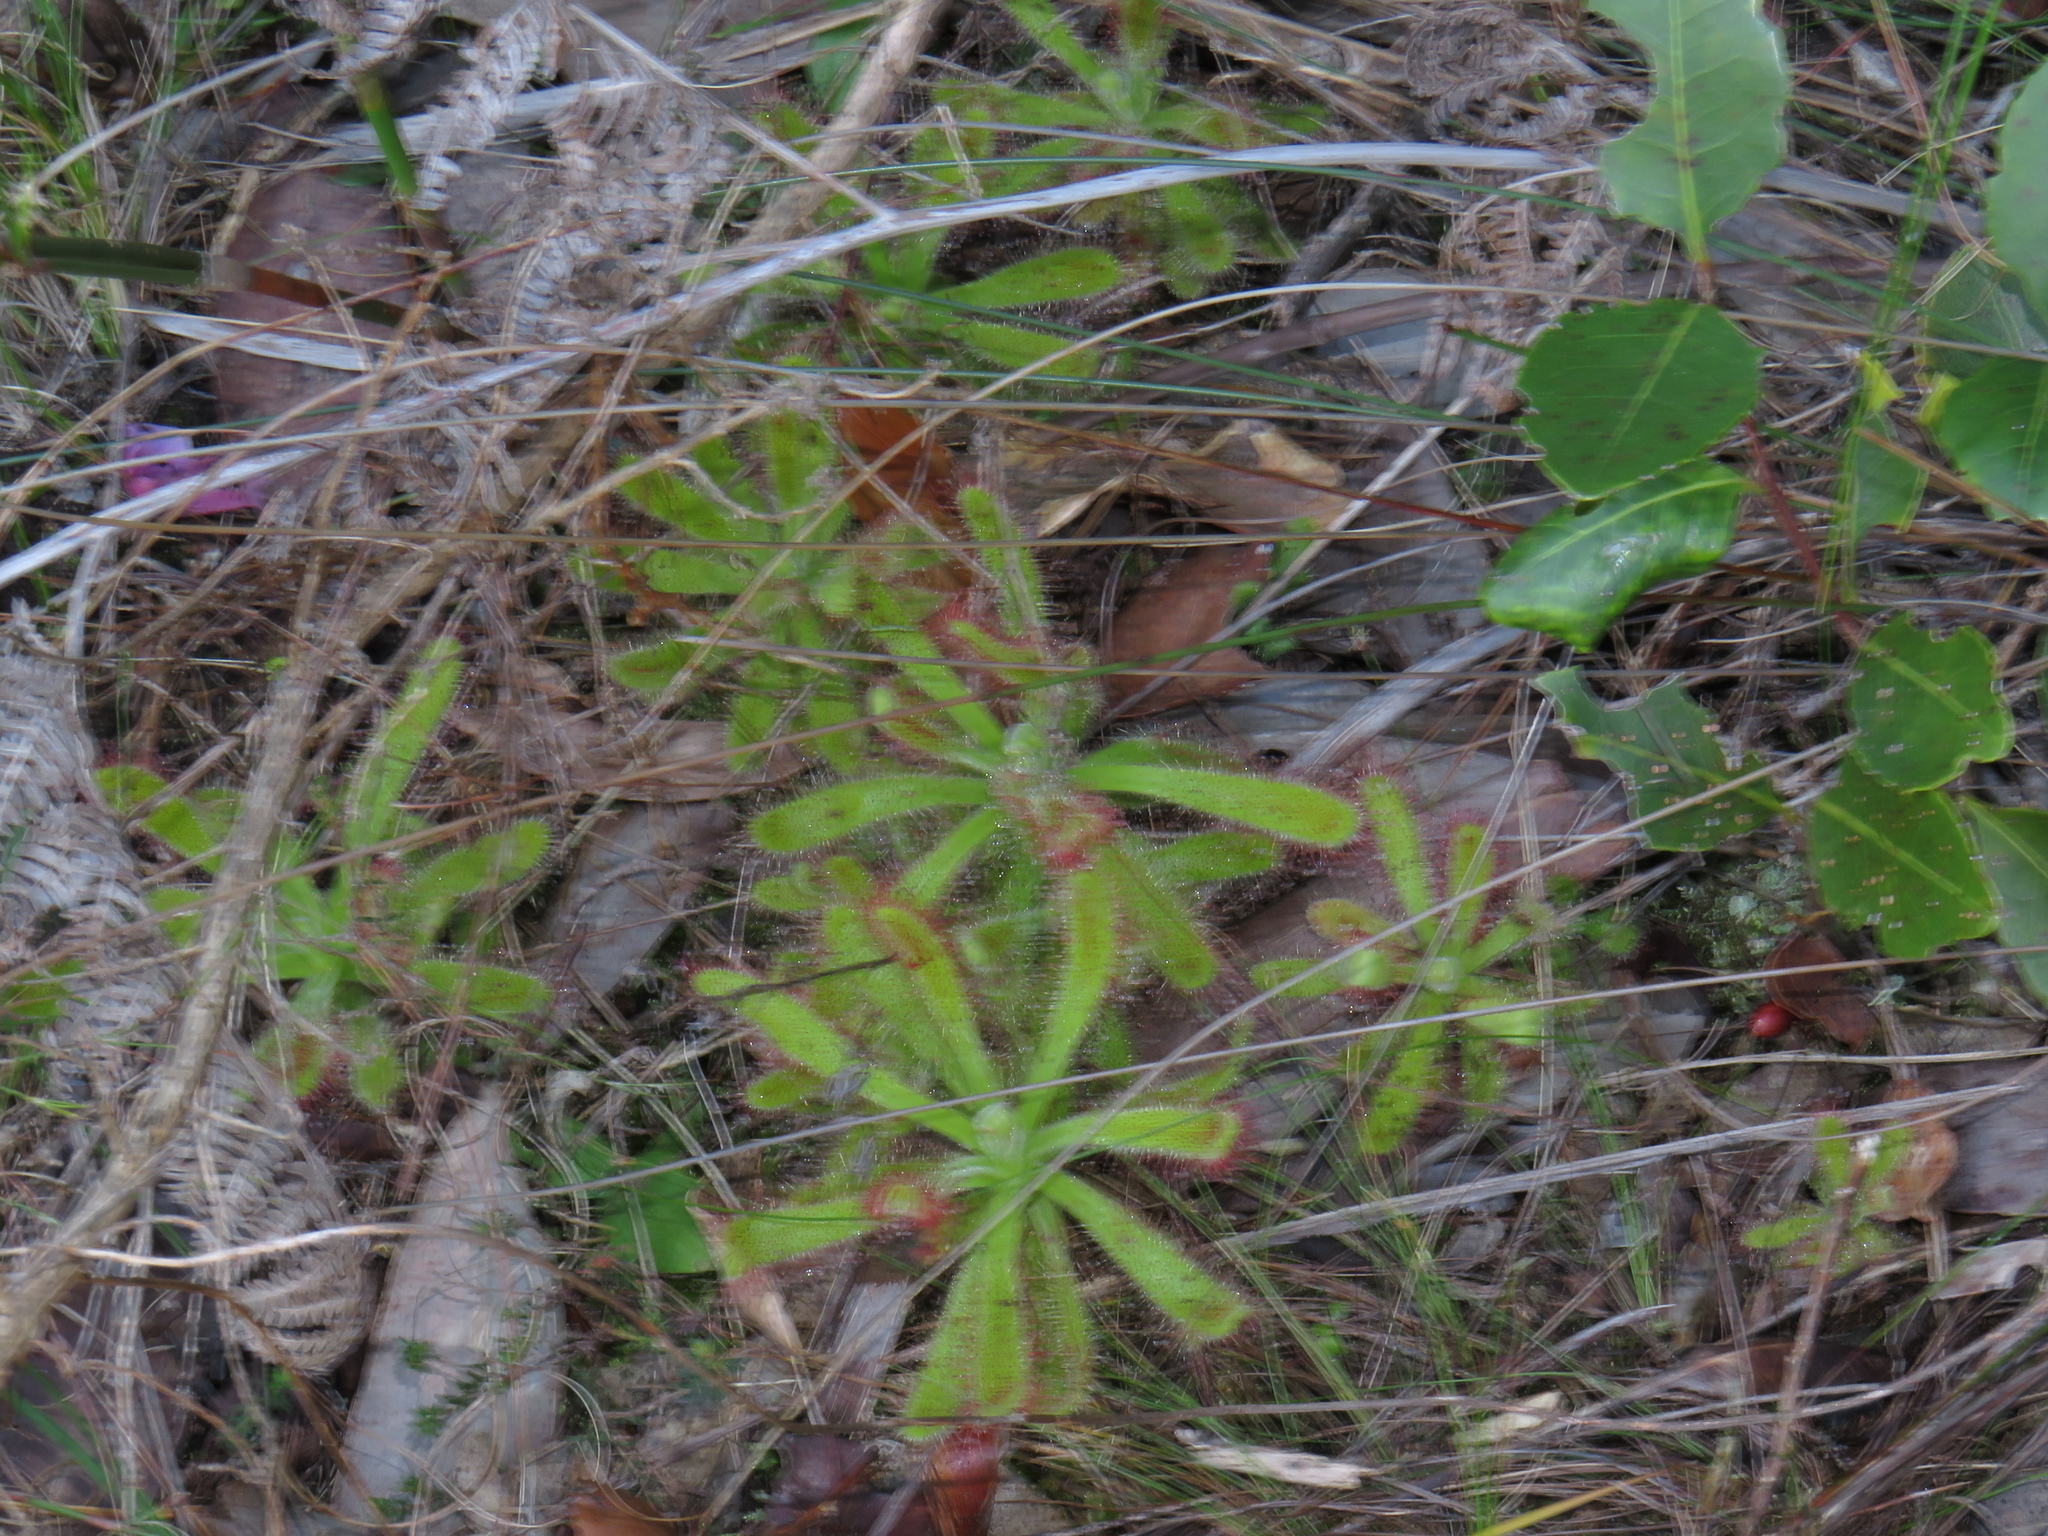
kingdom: Plantae
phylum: Tracheophyta
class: Magnoliopsida
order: Caryophyllales
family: Droseraceae
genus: Drosera
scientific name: Drosera hilaris
